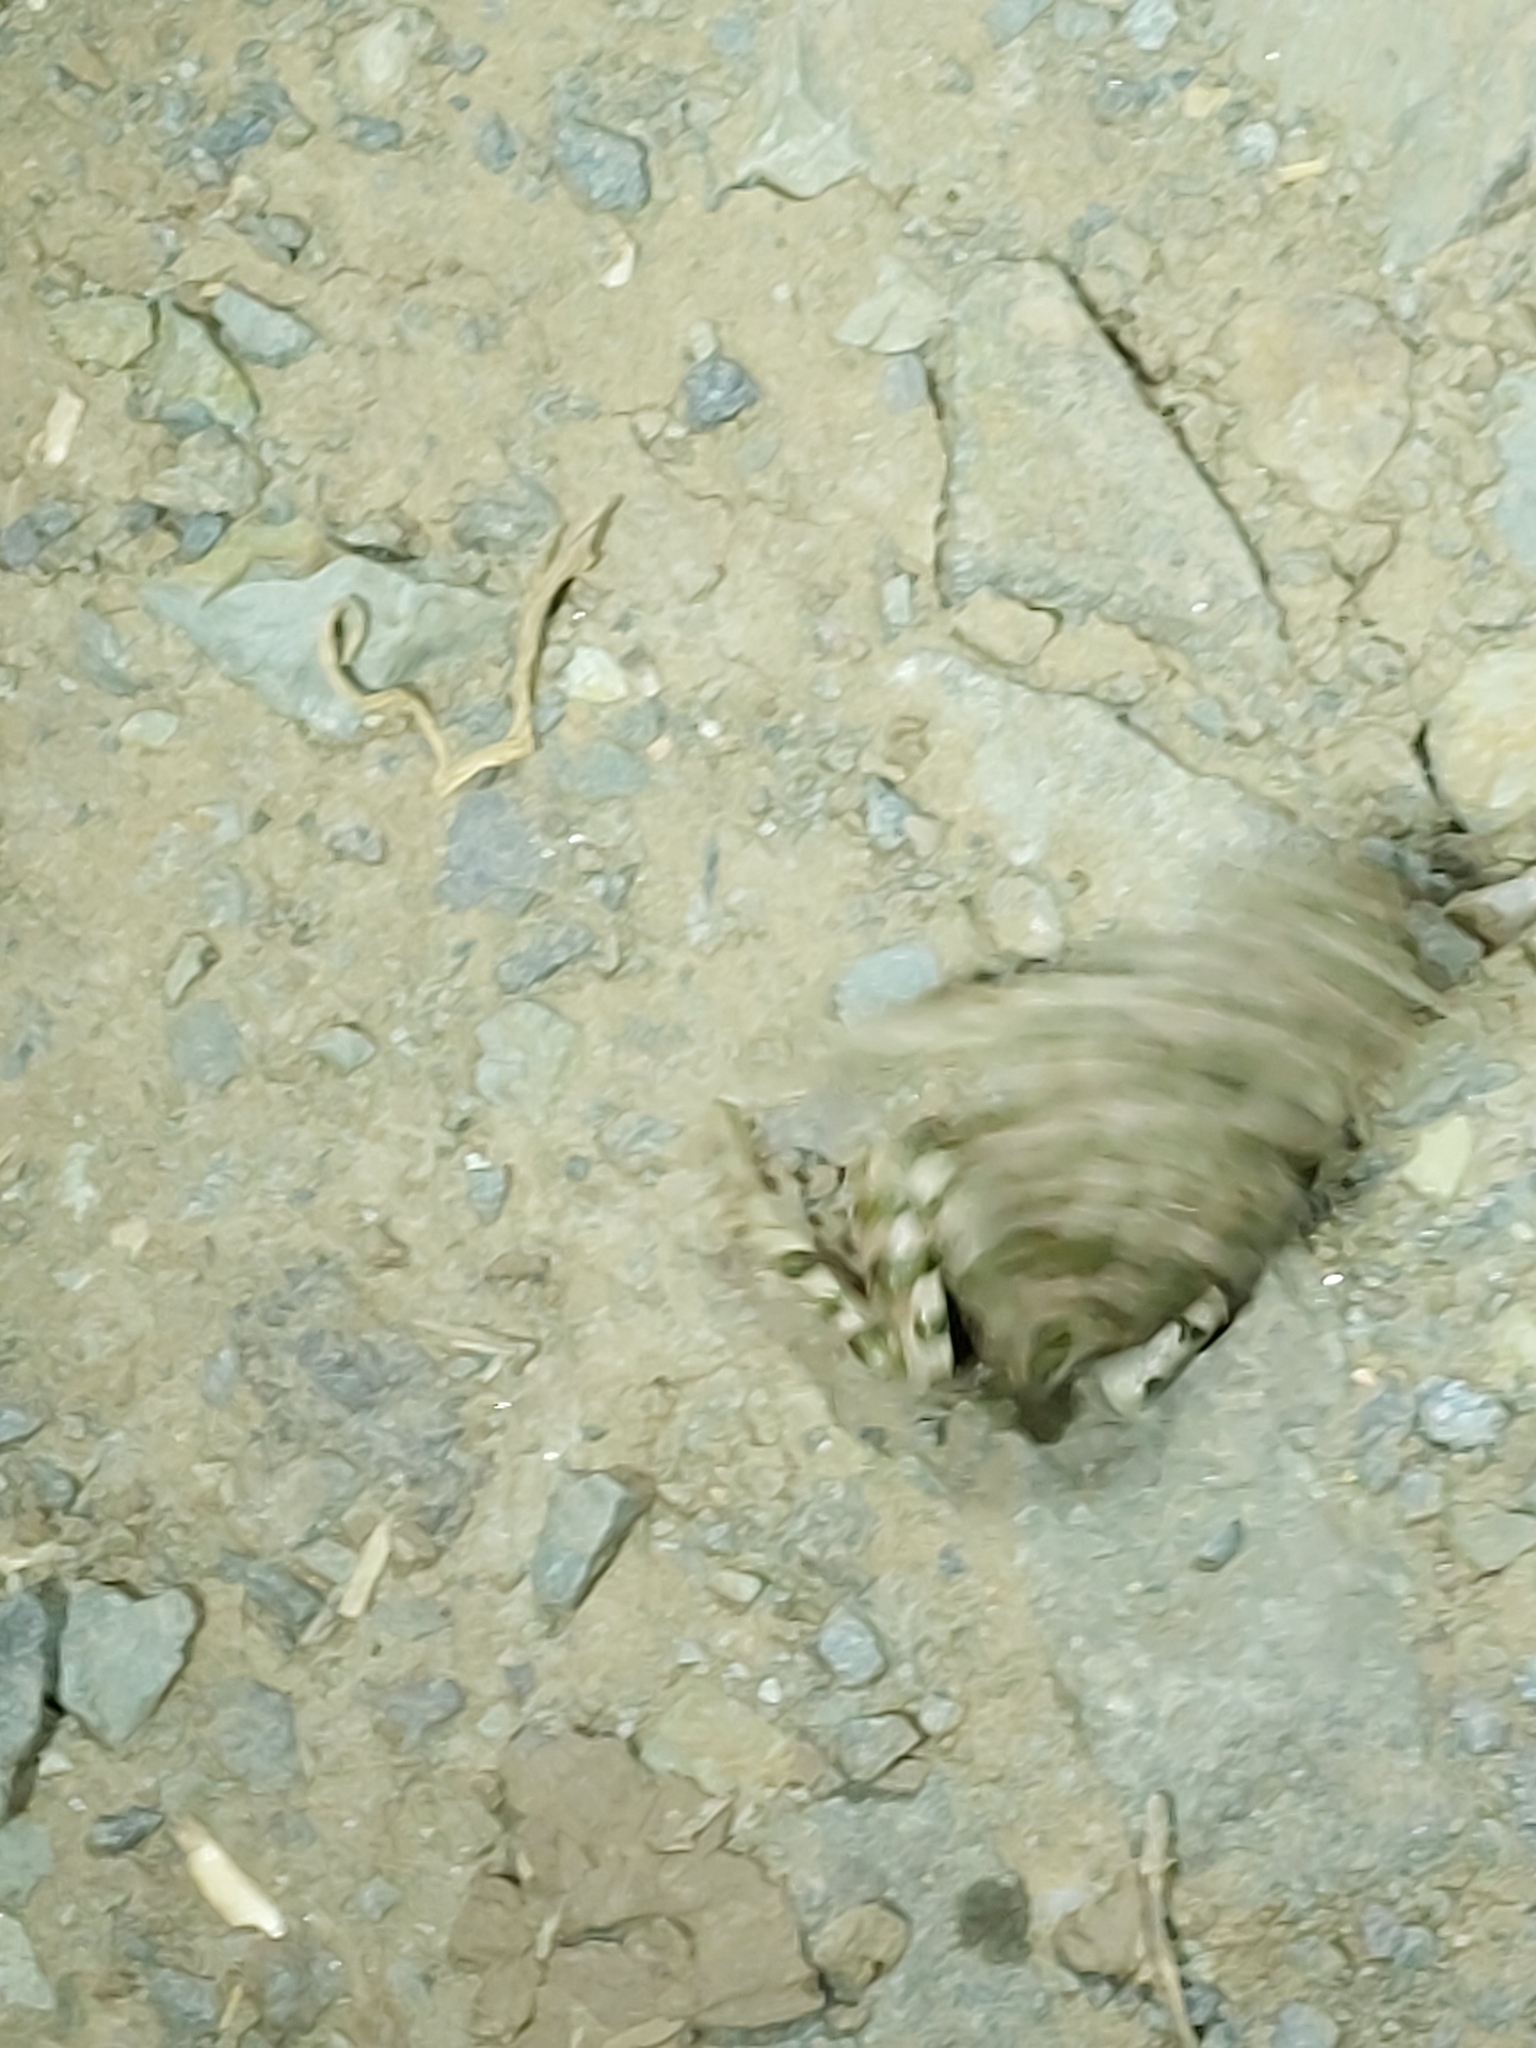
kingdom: Animalia
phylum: Chordata
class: Amphibia
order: Anura
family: Bufonidae
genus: Bufotes
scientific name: Bufotes viridis
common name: European green toad
